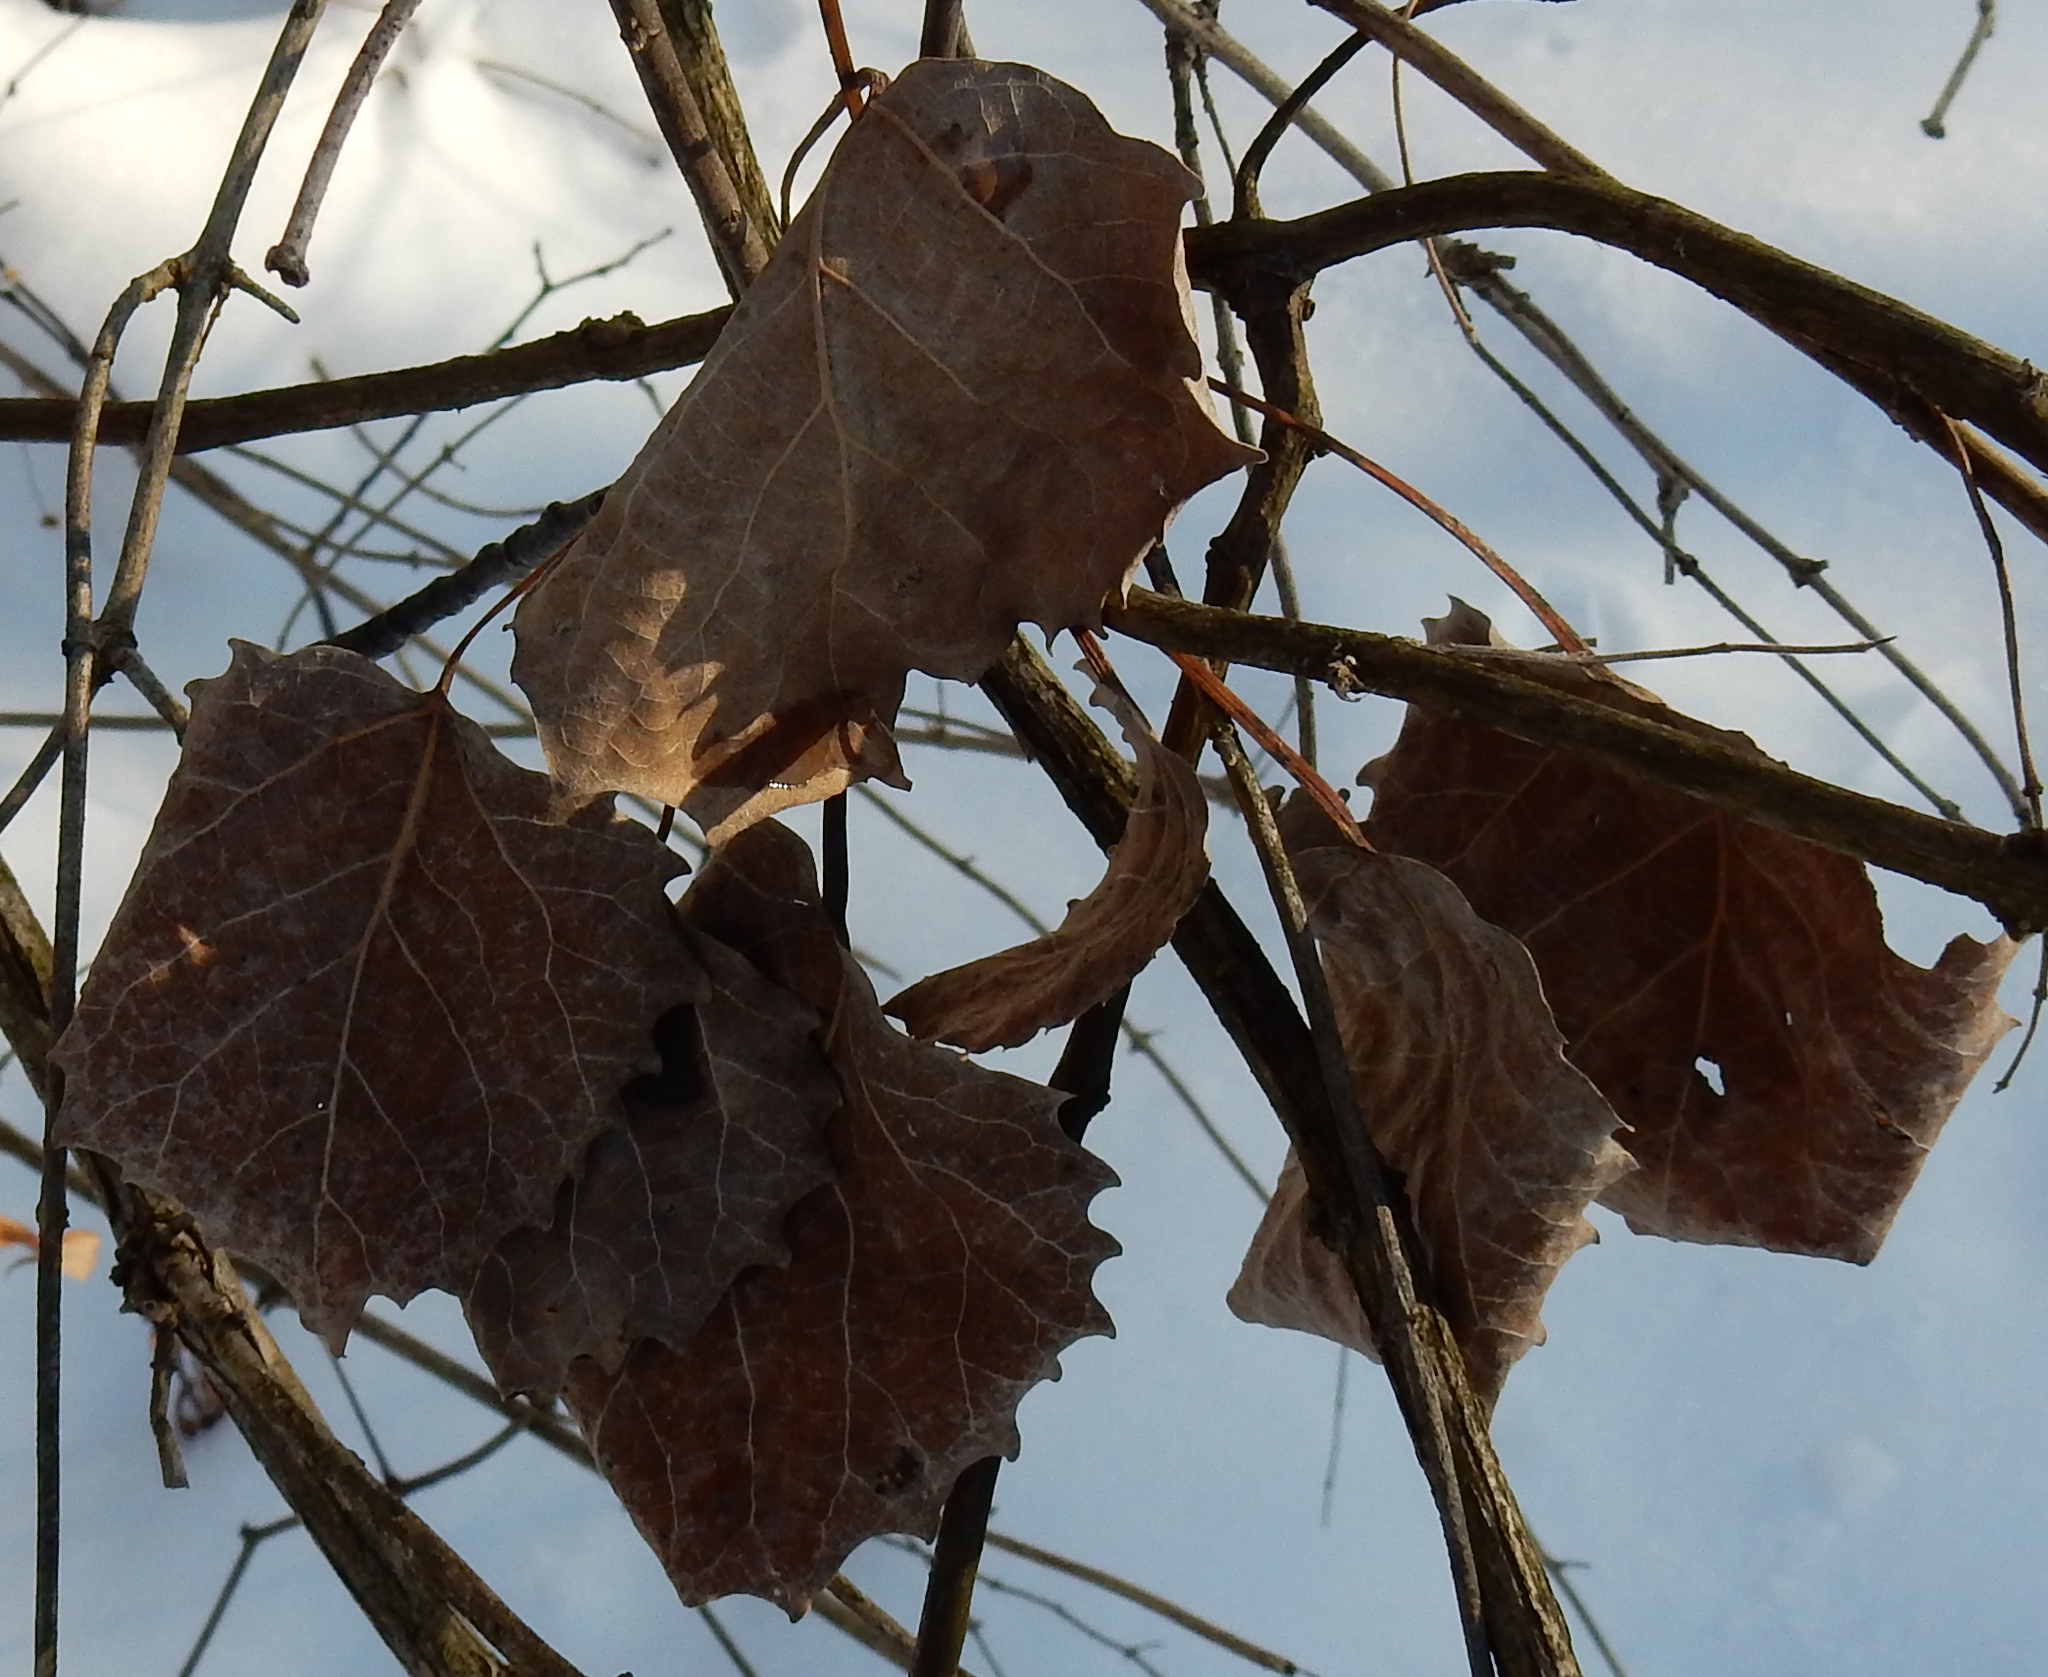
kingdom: Plantae
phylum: Tracheophyta
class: Magnoliopsida
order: Malpighiales
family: Salicaceae
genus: Populus
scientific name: Populus grandidentata
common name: Bigtooth aspen
